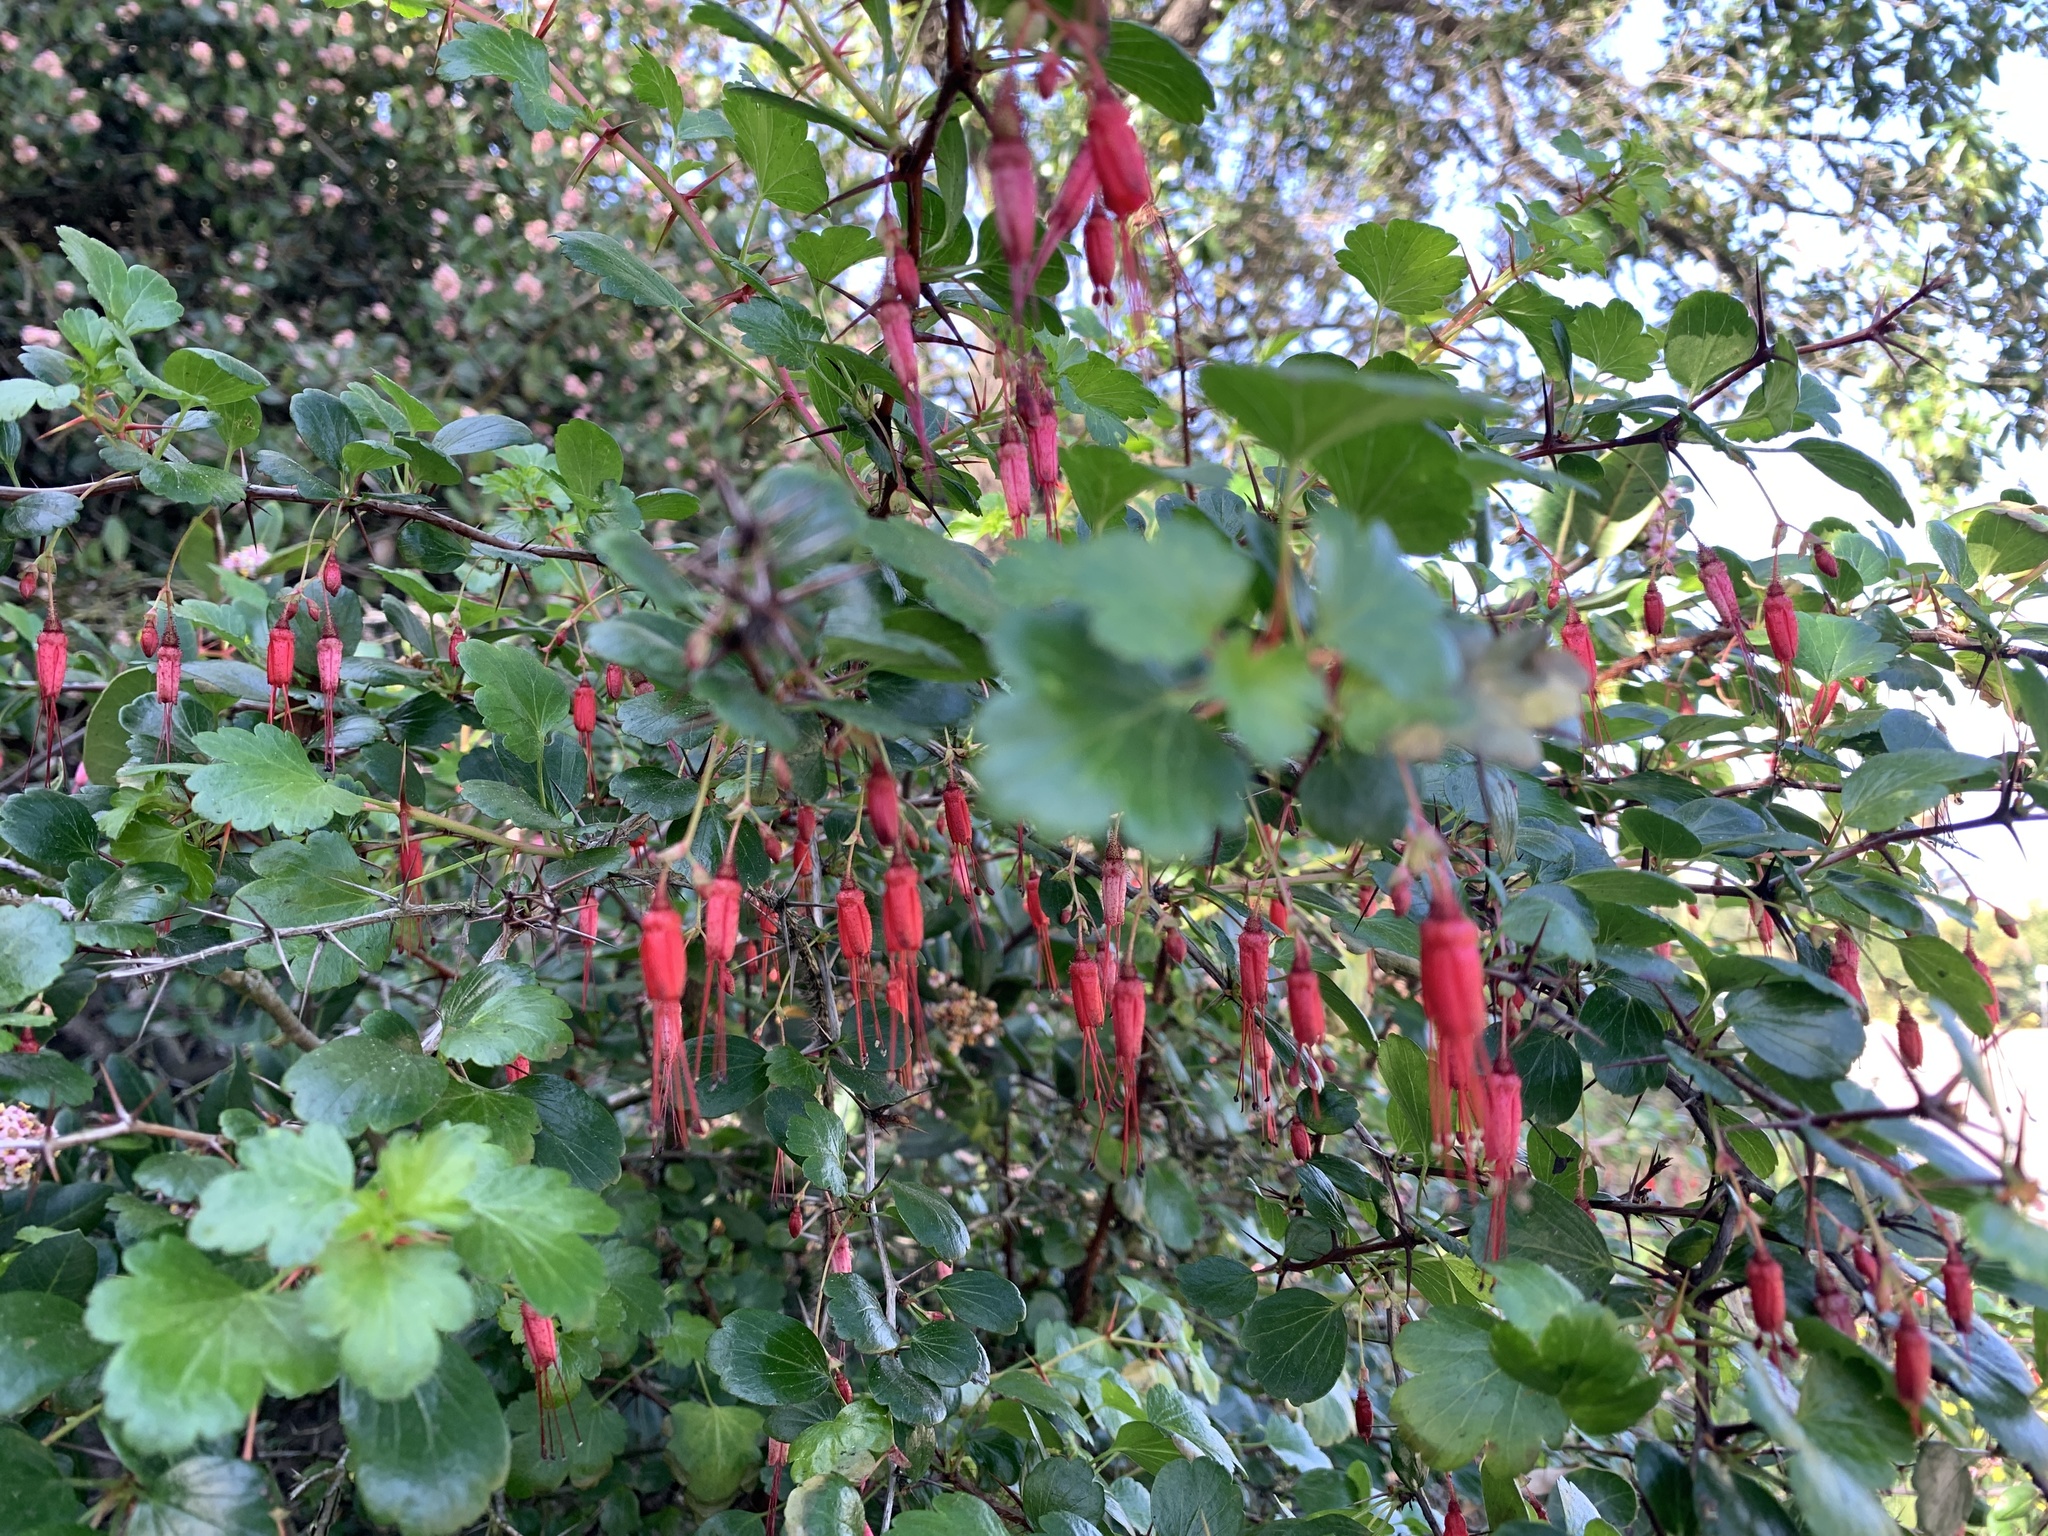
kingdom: Plantae
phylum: Tracheophyta
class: Magnoliopsida
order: Saxifragales
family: Grossulariaceae
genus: Ribes
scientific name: Ribes speciosum
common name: Fuchsia-flower gooseberry
